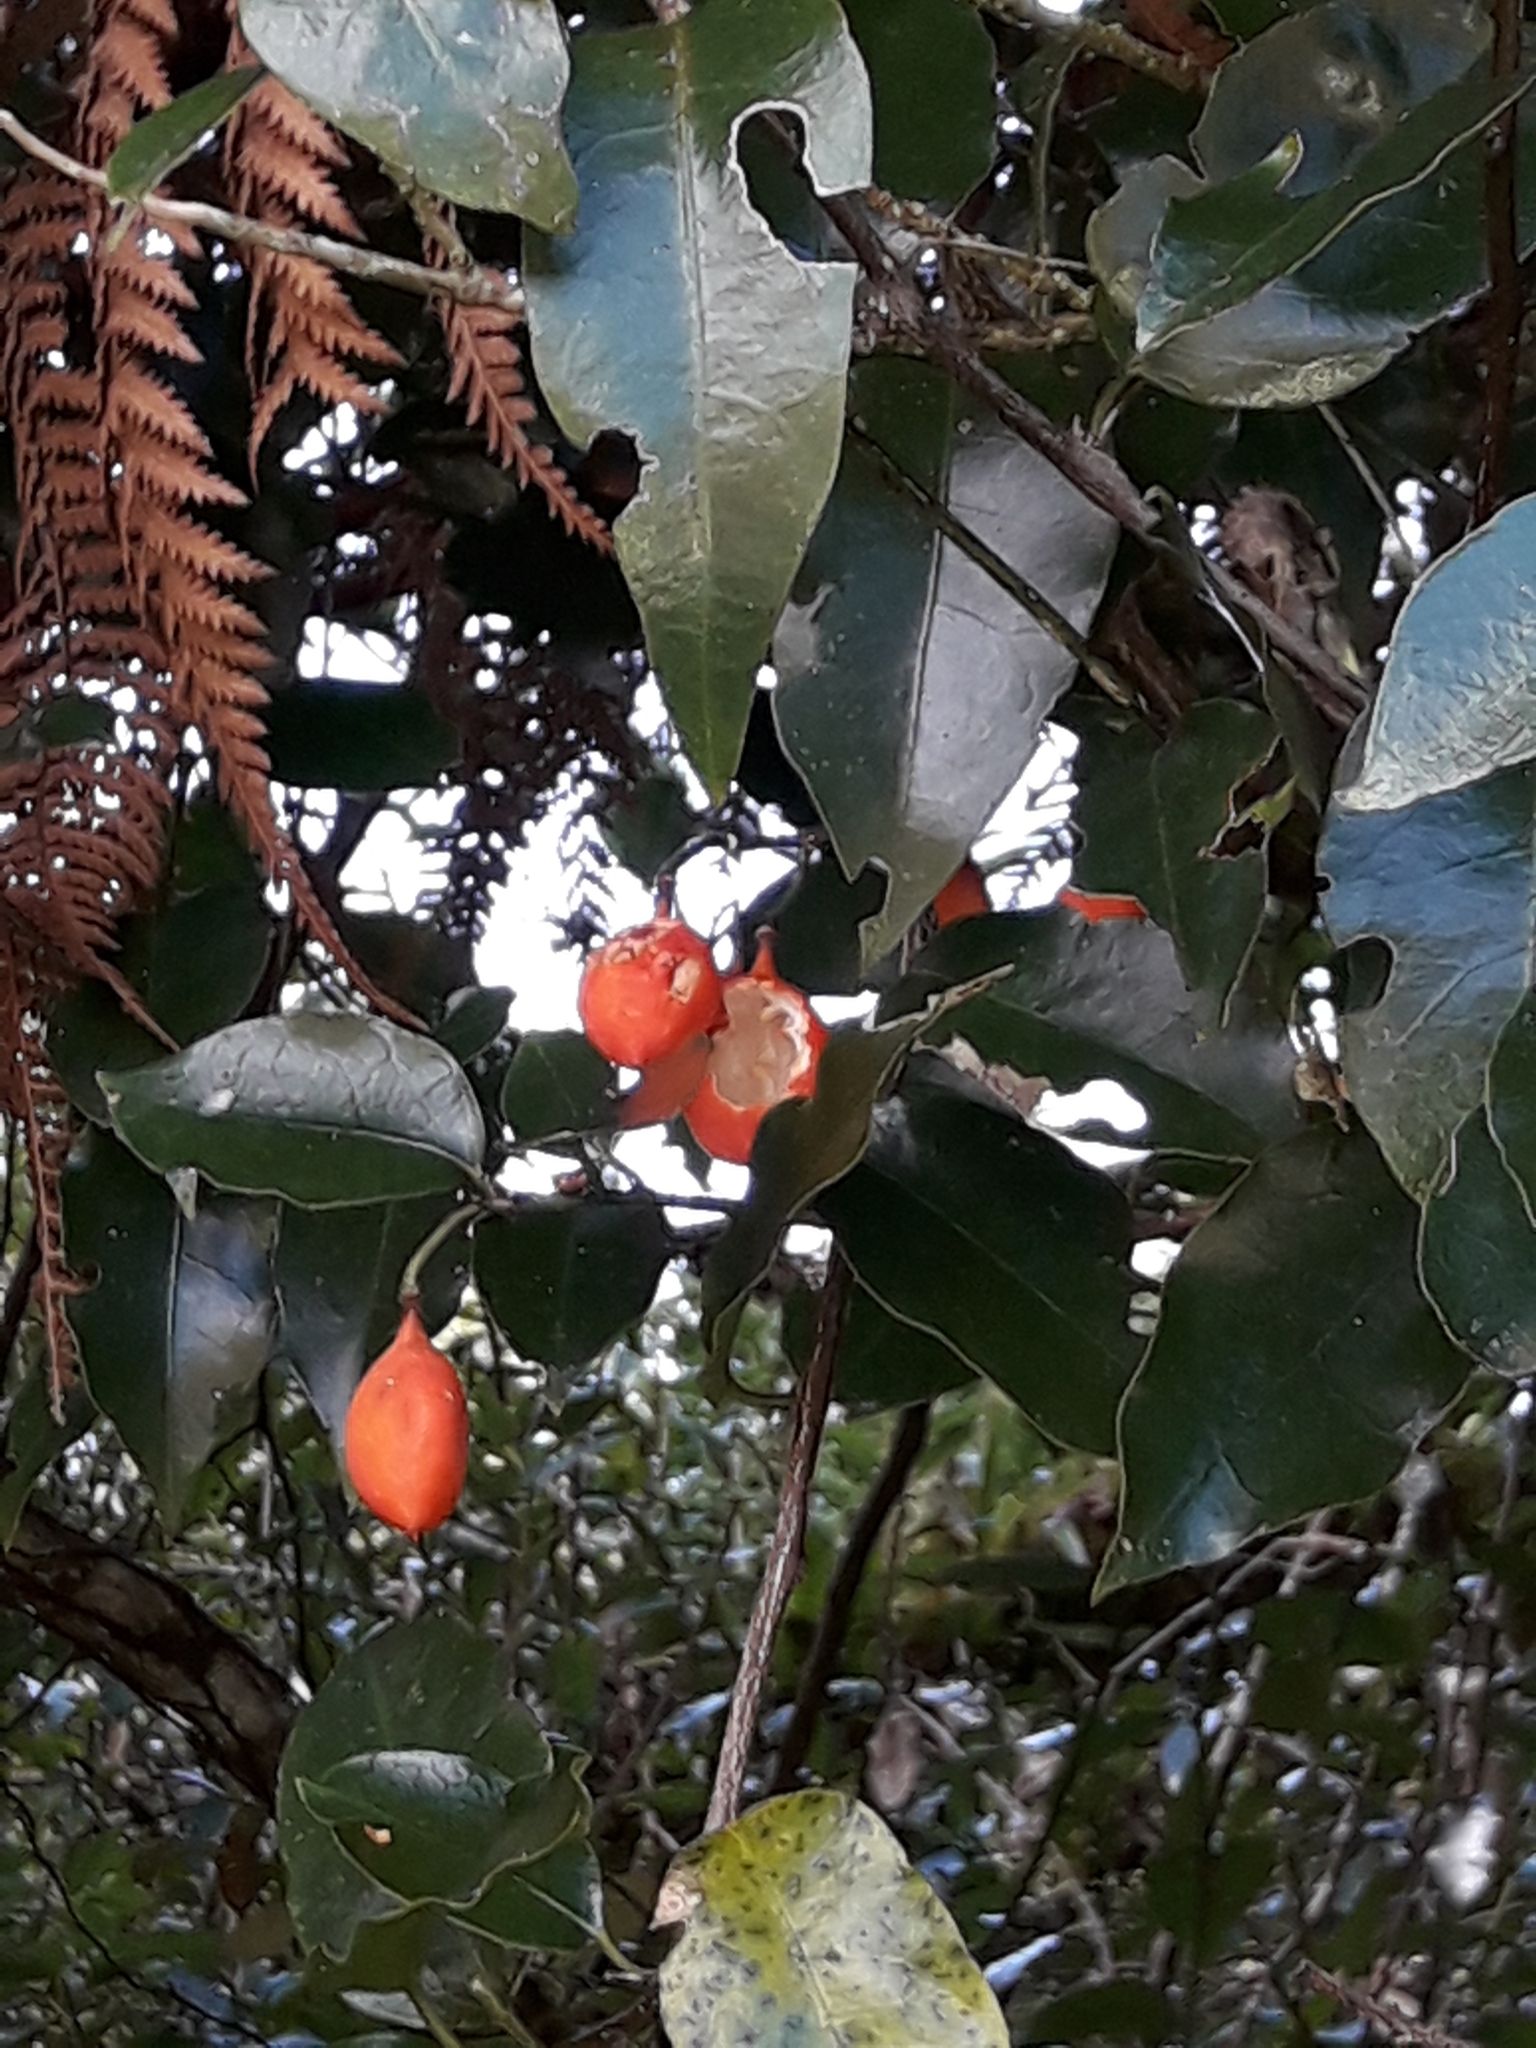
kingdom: Plantae
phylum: Tracheophyta
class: Magnoliopsida
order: Malpighiales
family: Passifloraceae
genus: Passiflora
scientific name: Passiflora tetrandra
